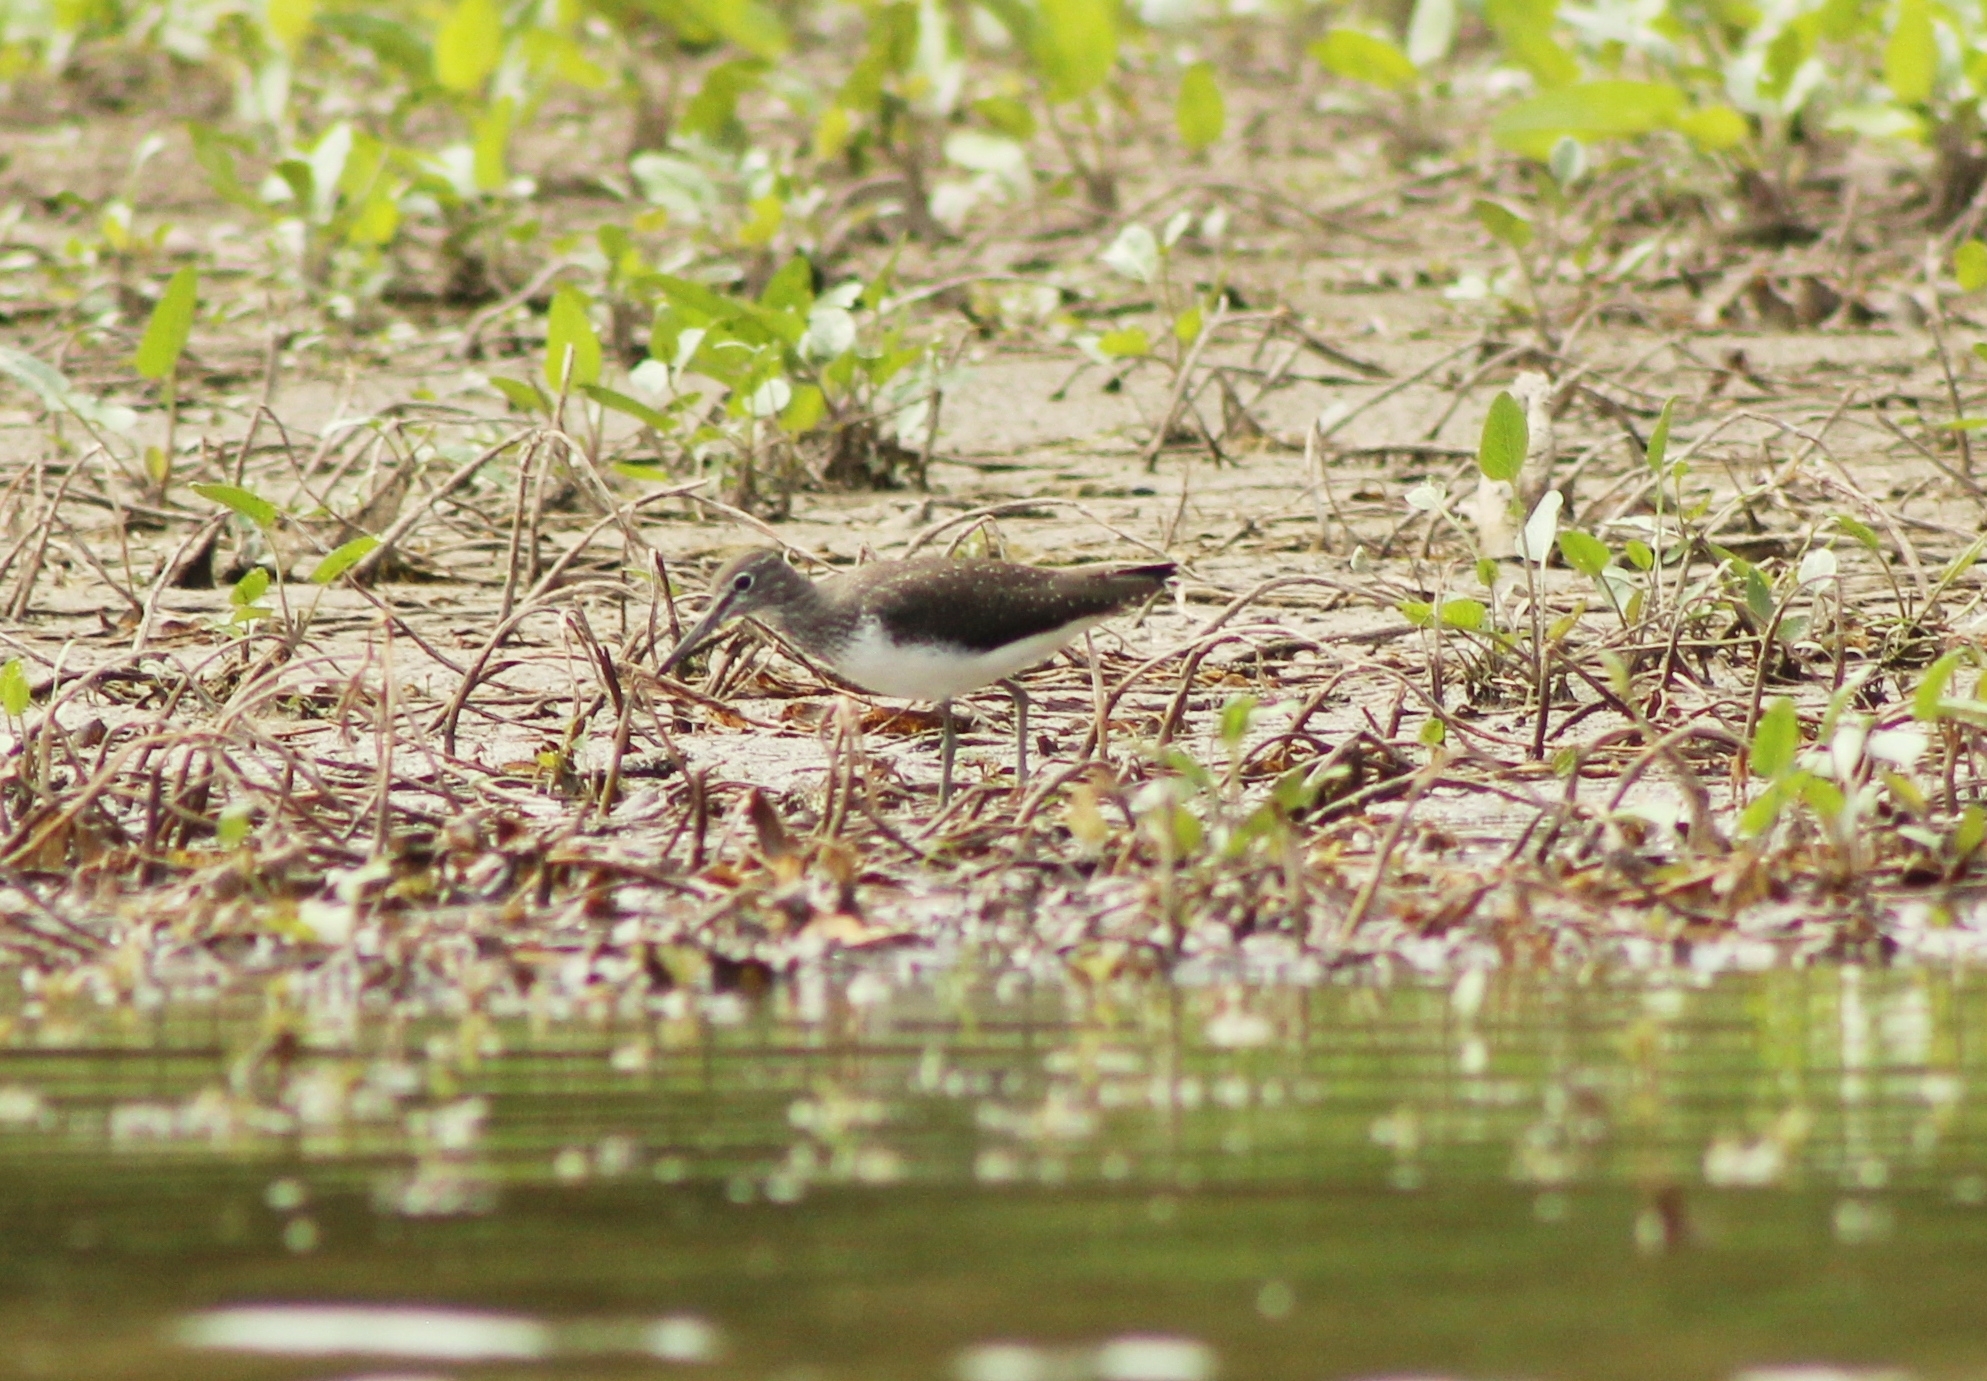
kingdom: Animalia
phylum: Chordata
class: Aves
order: Charadriiformes
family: Scolopacidae
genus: Tringa
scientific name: Tringa ochropus
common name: Green sandpiper
